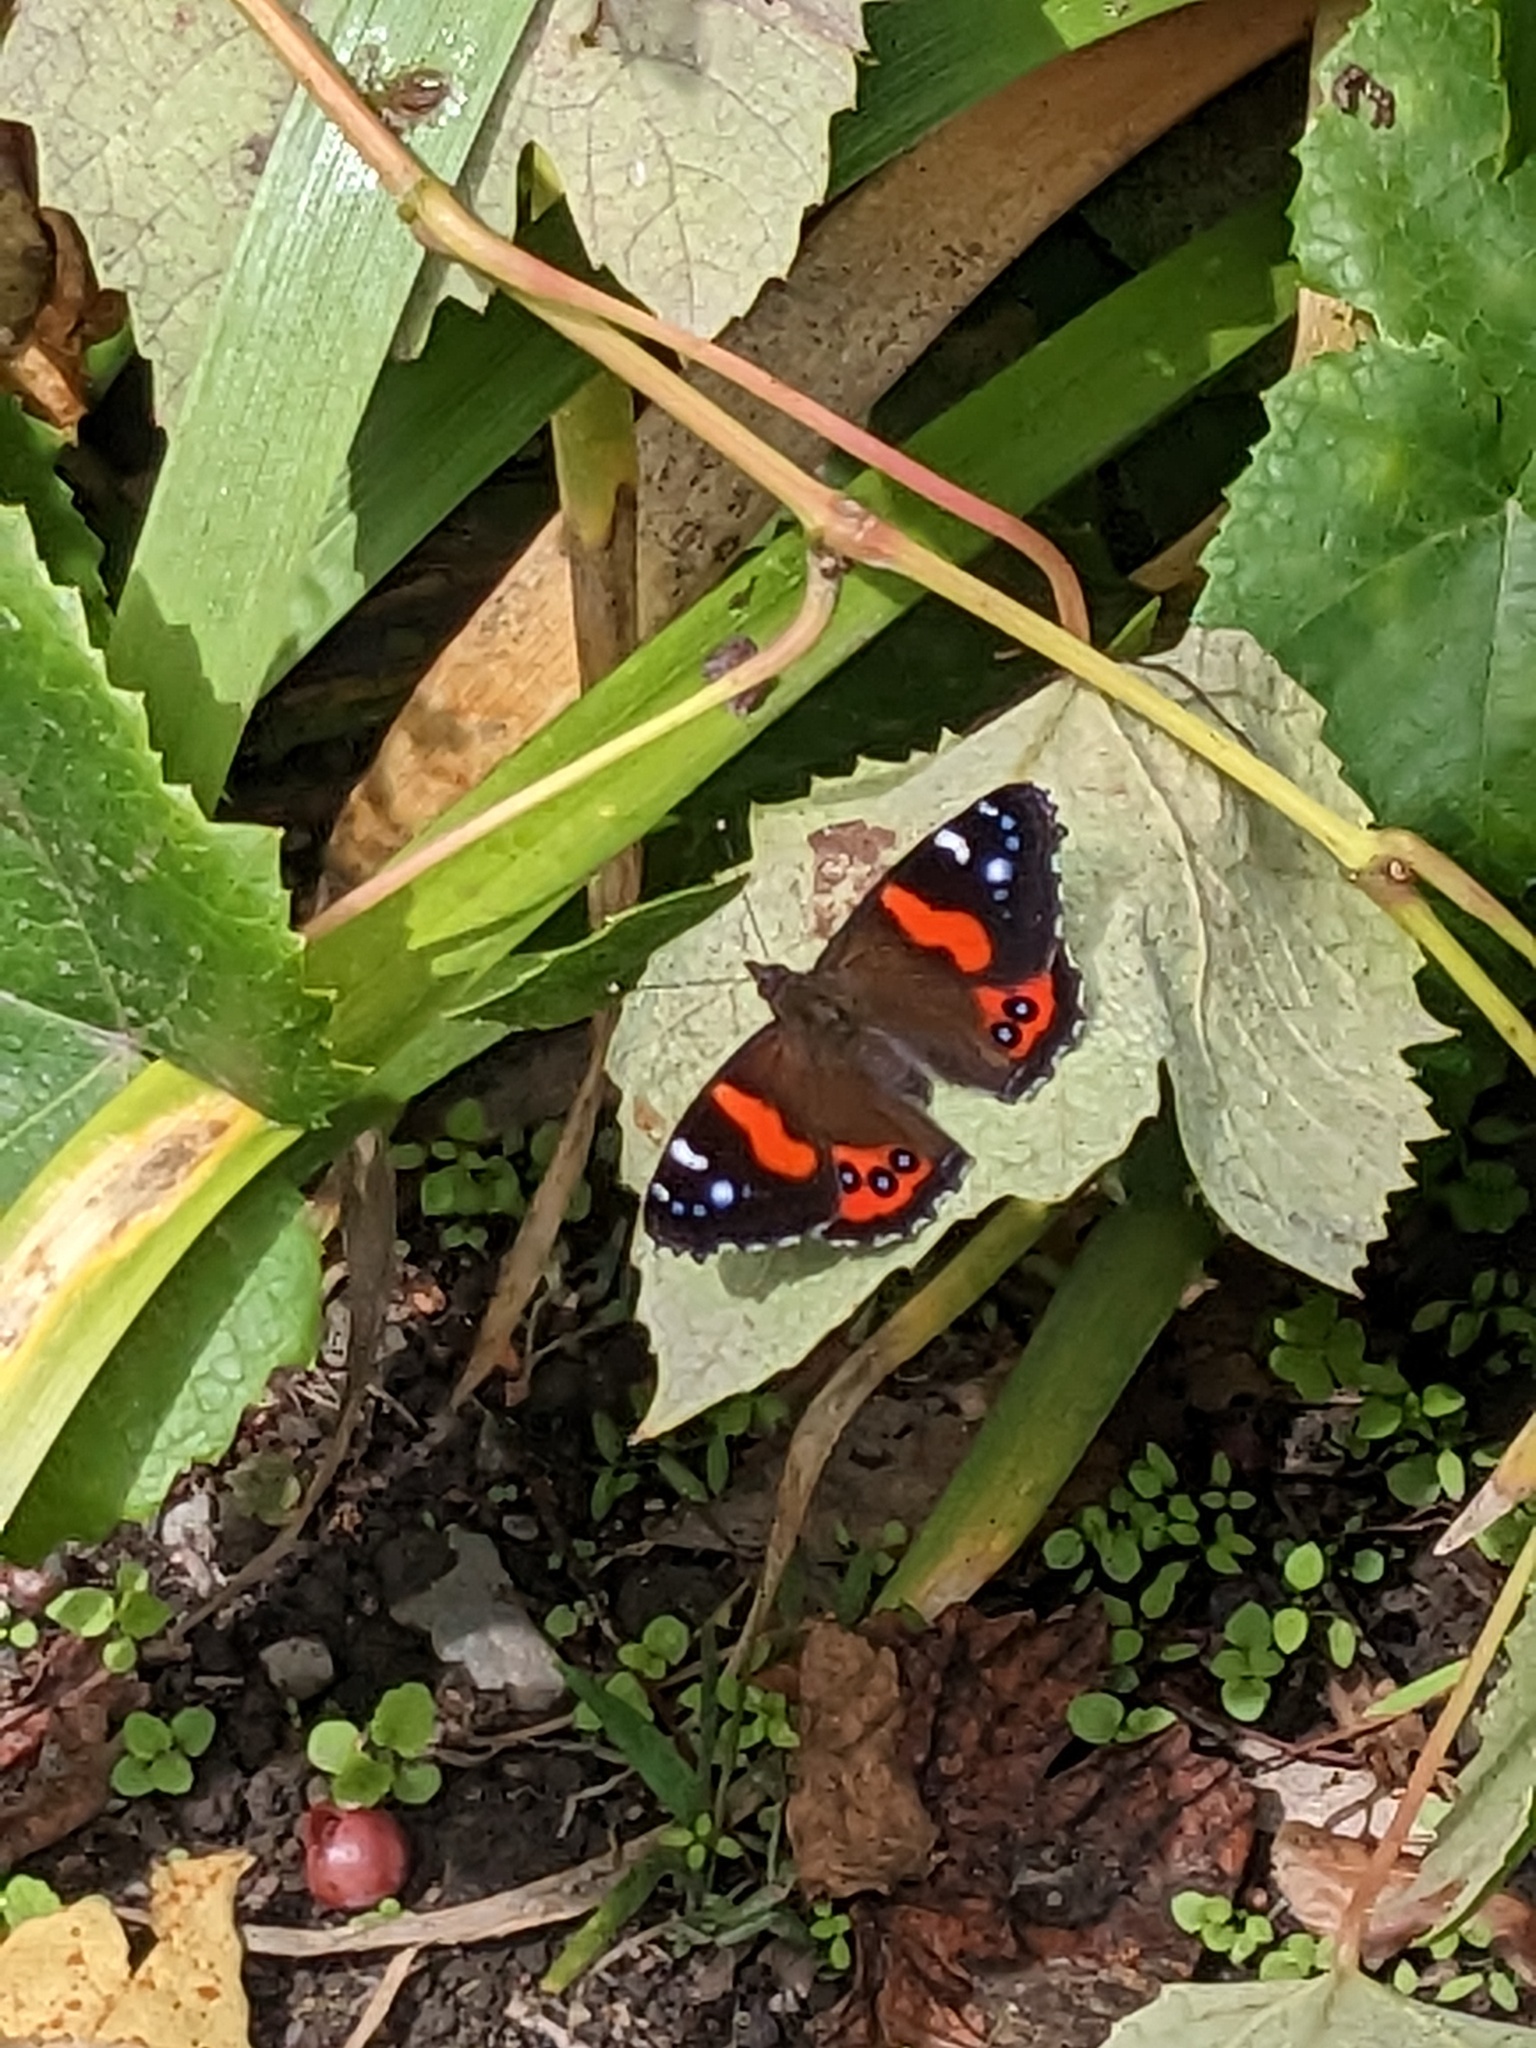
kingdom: Animalia
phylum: Arthropoda
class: Insecta
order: Lepidoptera
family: Nymphalidae
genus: Vanessa
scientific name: Vanessa gonerilla
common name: New zealand red admiral
